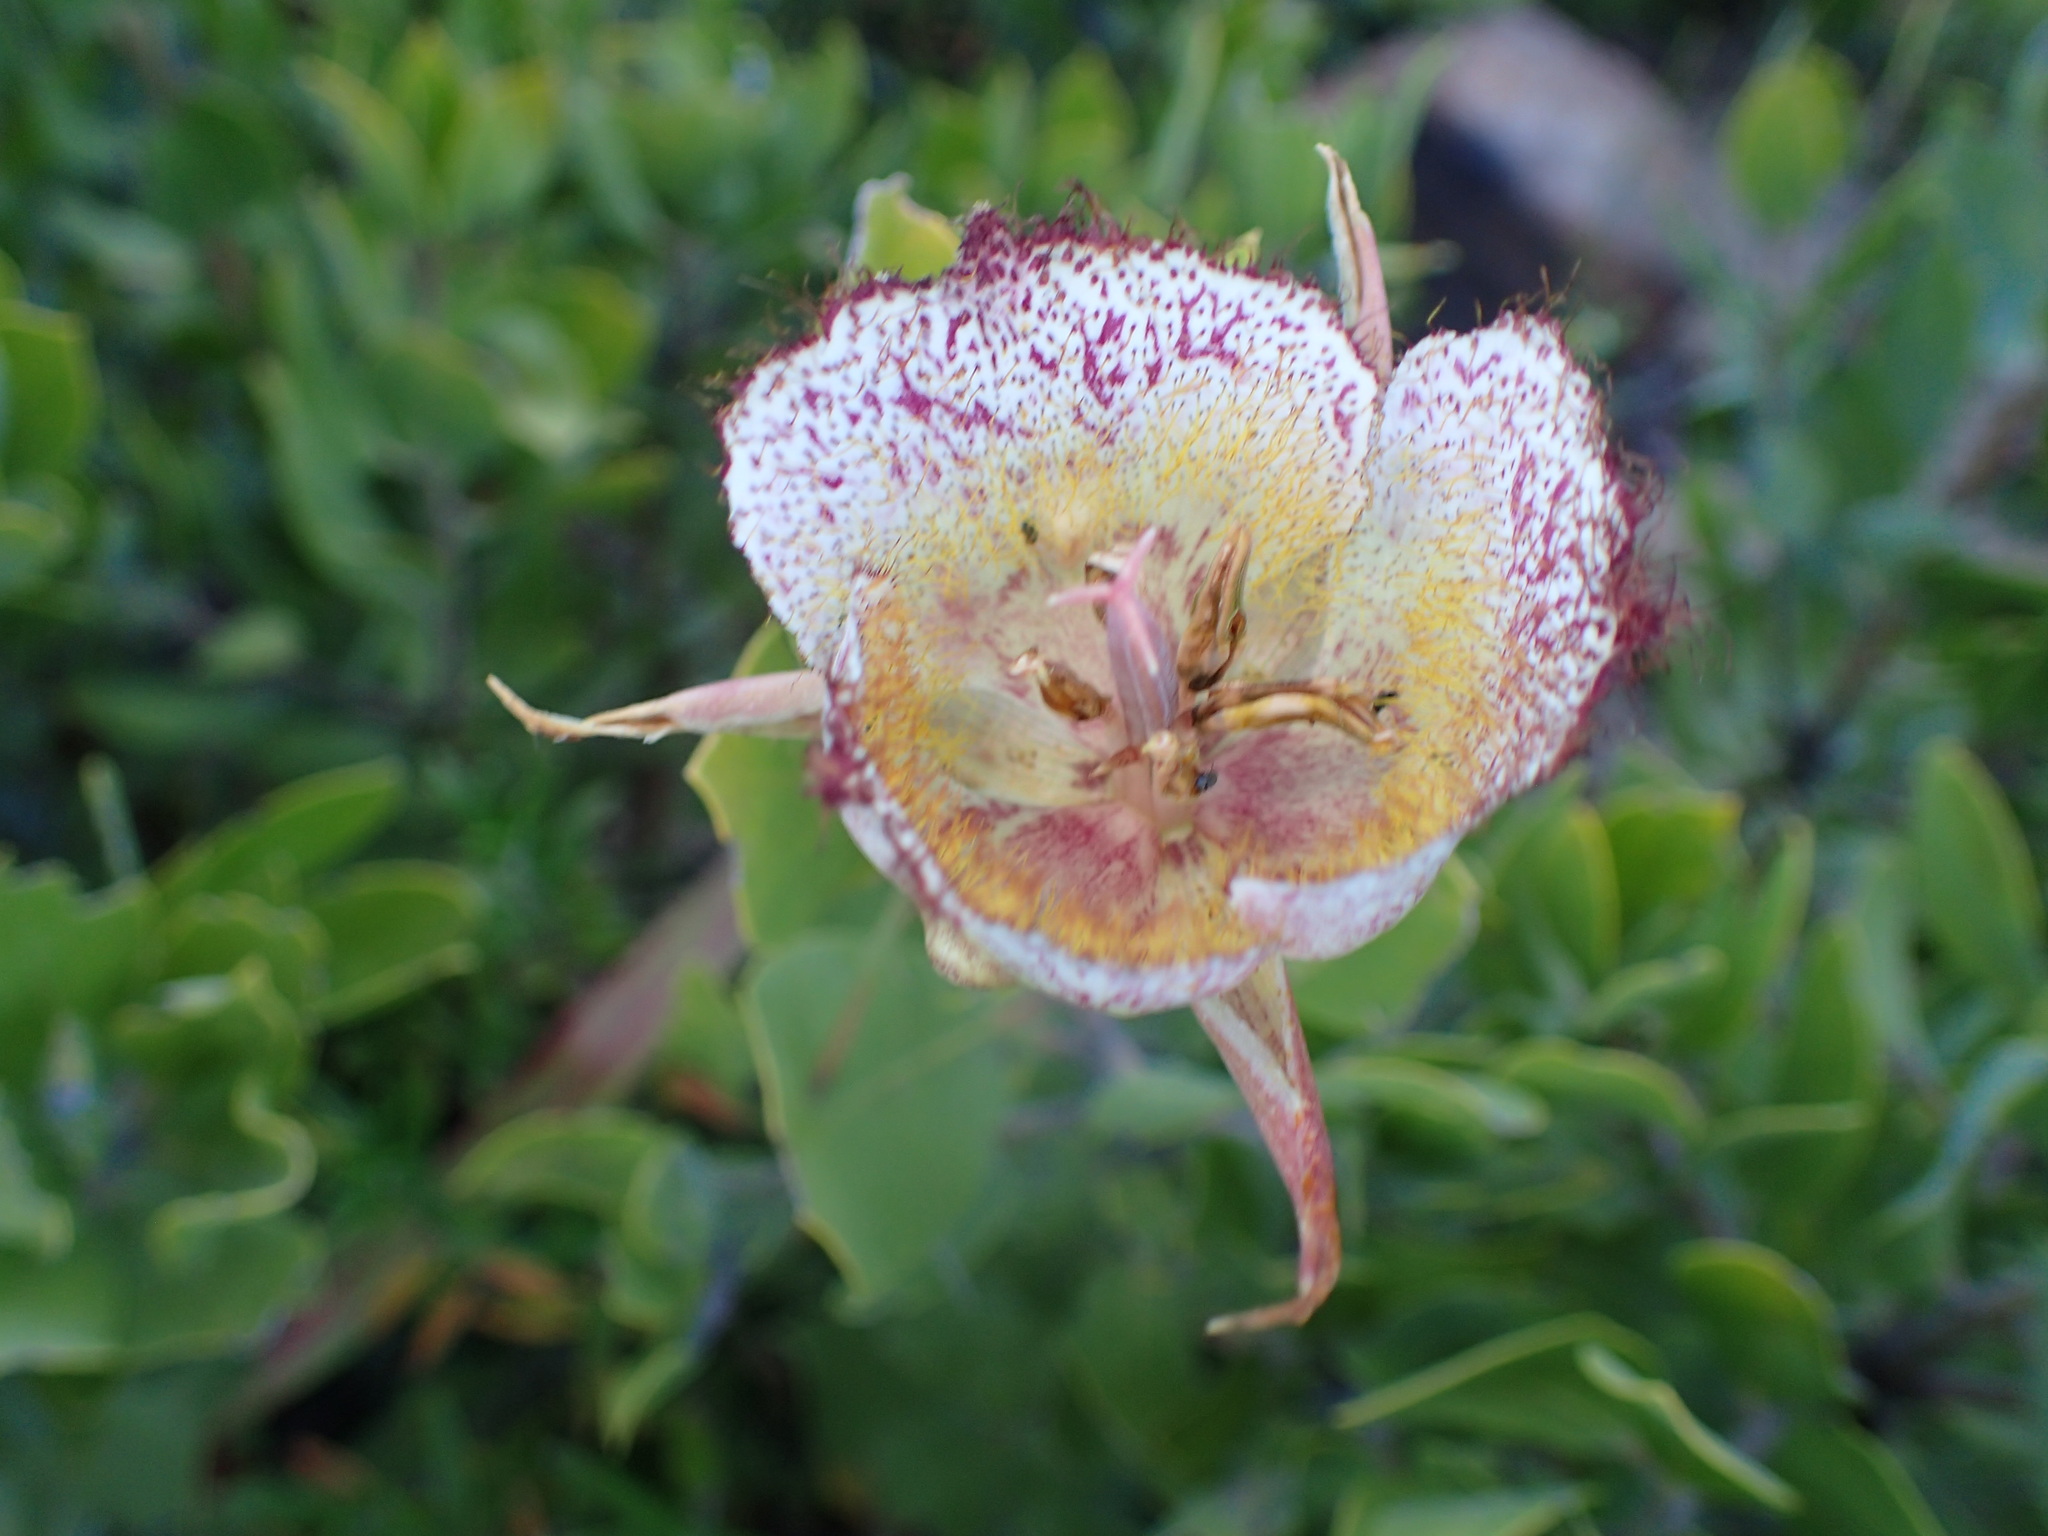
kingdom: Plantae
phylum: Tracheophyta
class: Liliopsida
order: Liliales
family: Liliaceae
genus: Calochortus
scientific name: Calochortus fimbriatus
